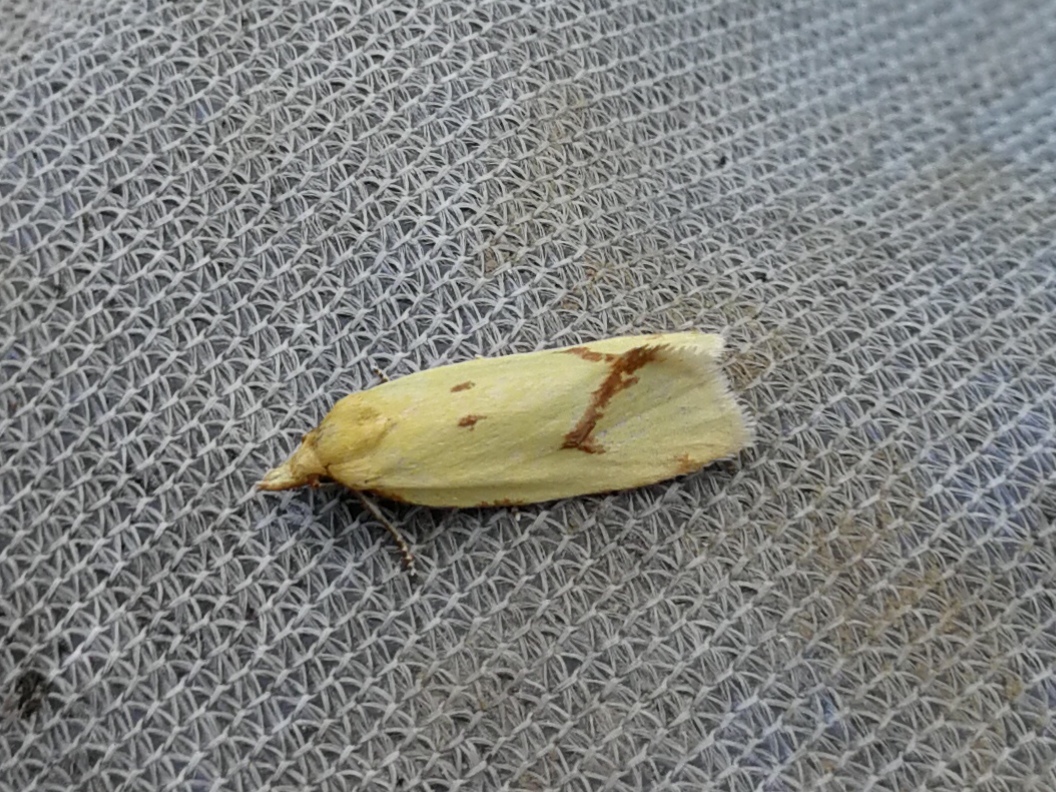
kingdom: Animalia
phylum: Arthropoda
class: Insecta
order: Lepidoptera
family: Tortricidae
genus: Agapeta
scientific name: Agapeta hamana
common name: Common yellow conch
